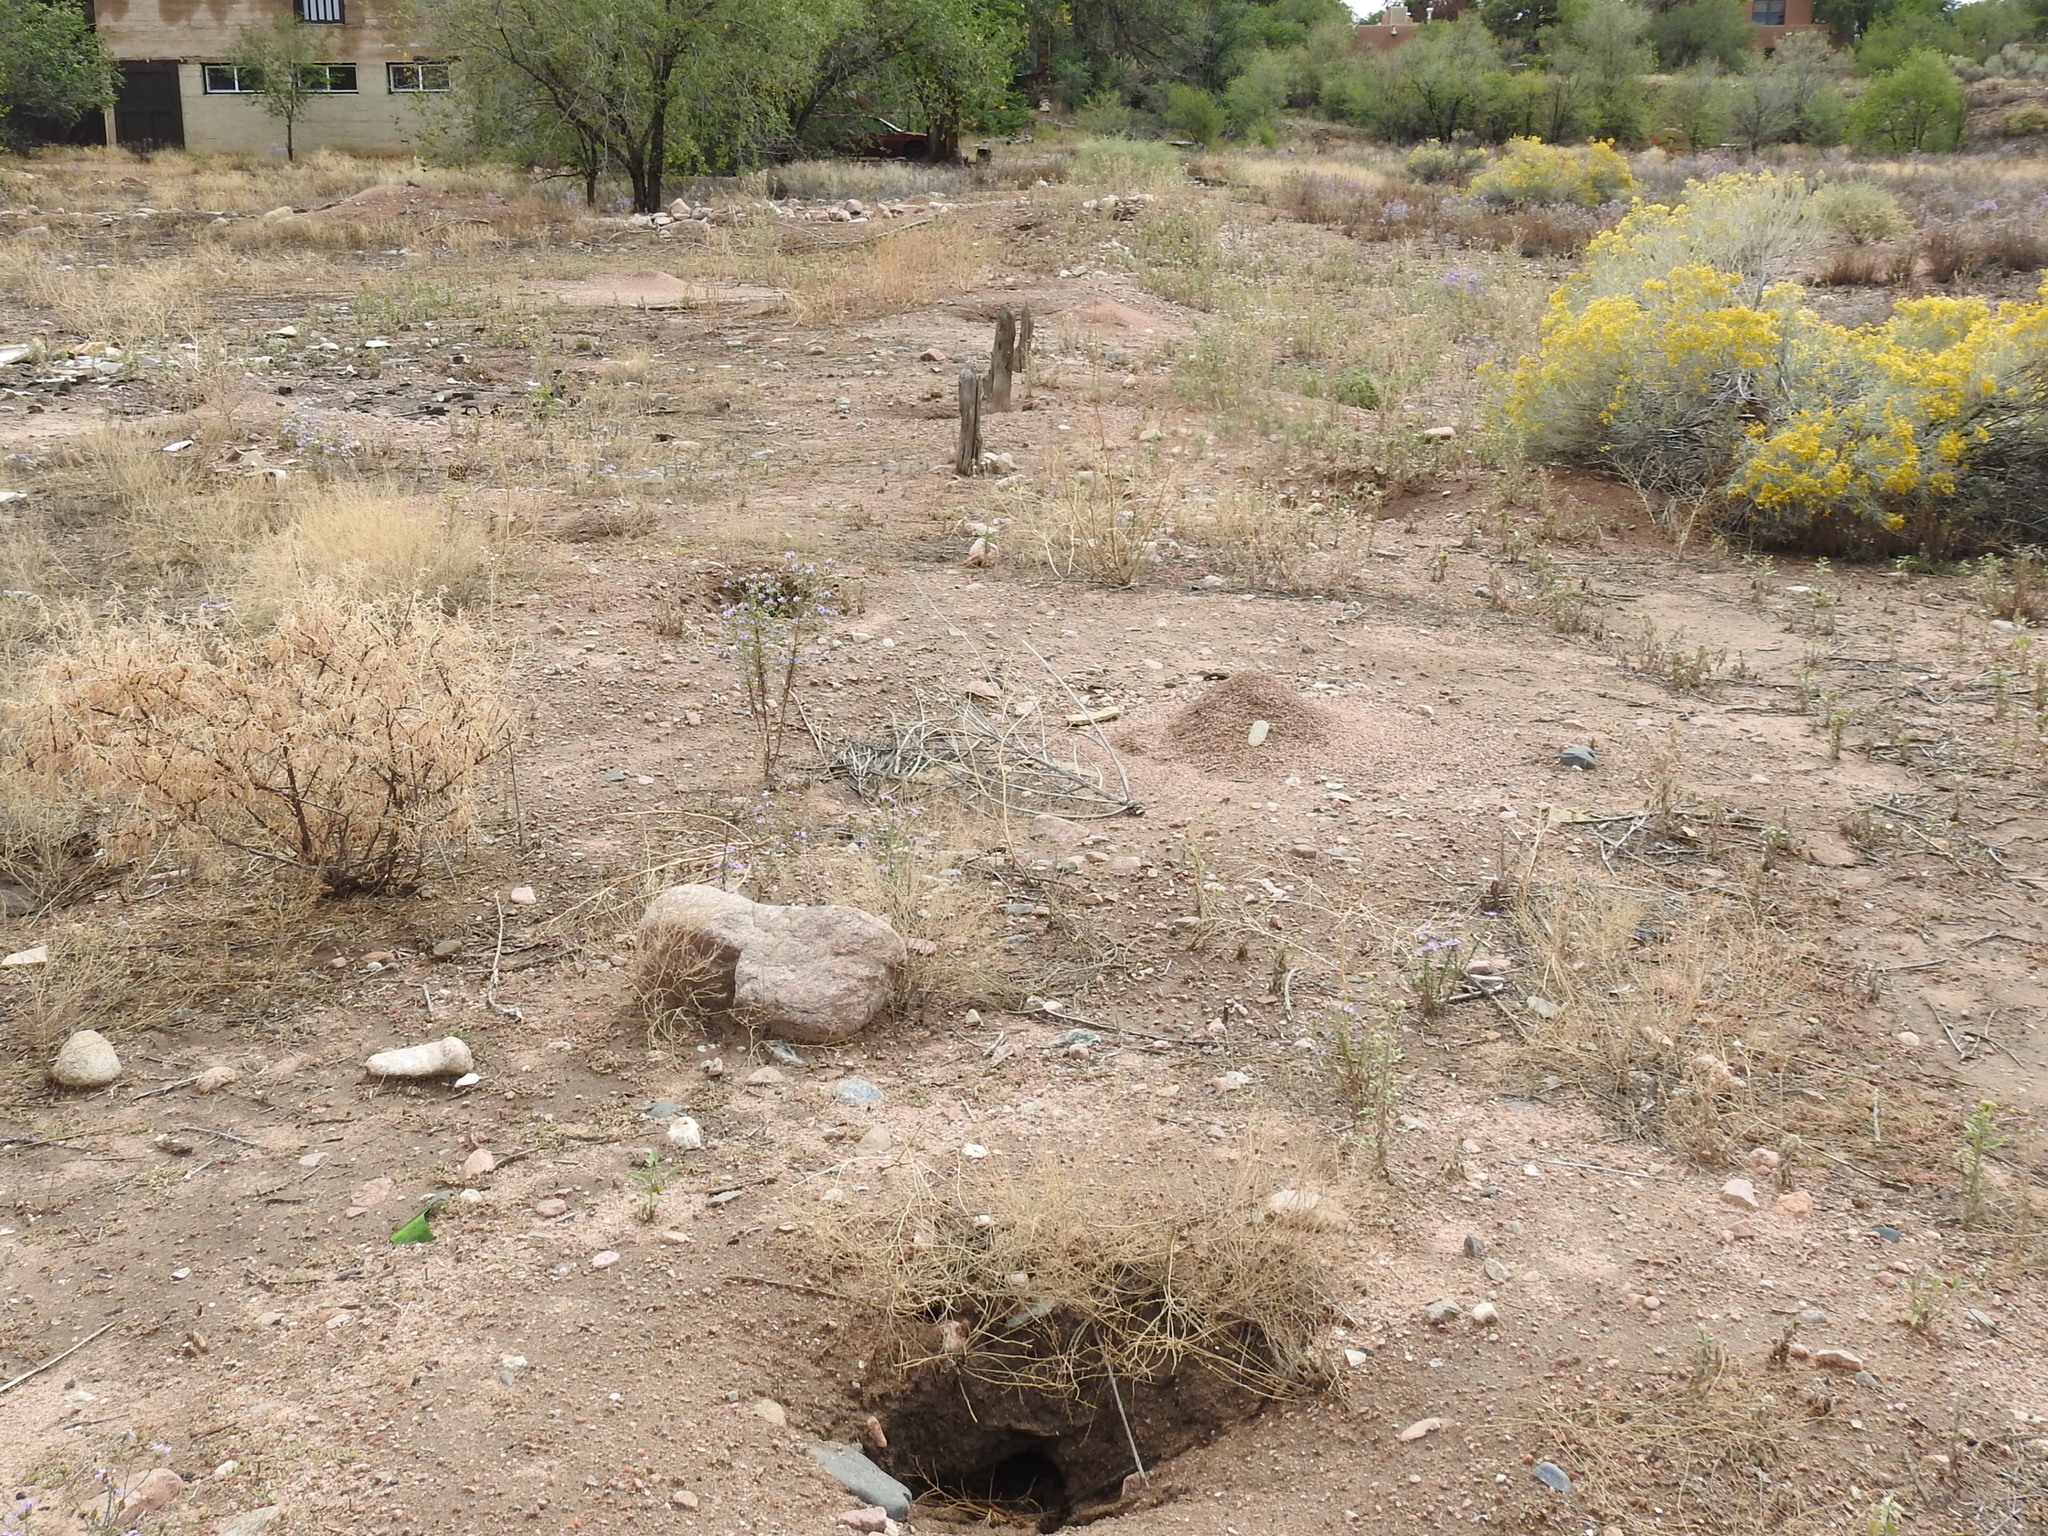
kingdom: Animalia
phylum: Chordata
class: Mammalia
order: Rodentia
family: Sciuridae
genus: Cynomys
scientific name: Cynomys gunnisoni
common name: Gunnison's prairie dog
